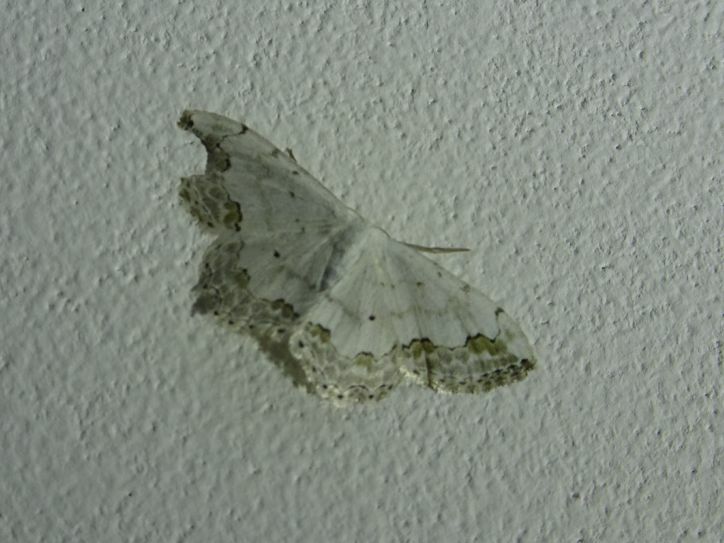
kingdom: Animalia
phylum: Arthropoda
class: Insecta
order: Lepidoptera
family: Geometridae
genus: Scopula
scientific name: Scopula ornata
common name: Lace border
